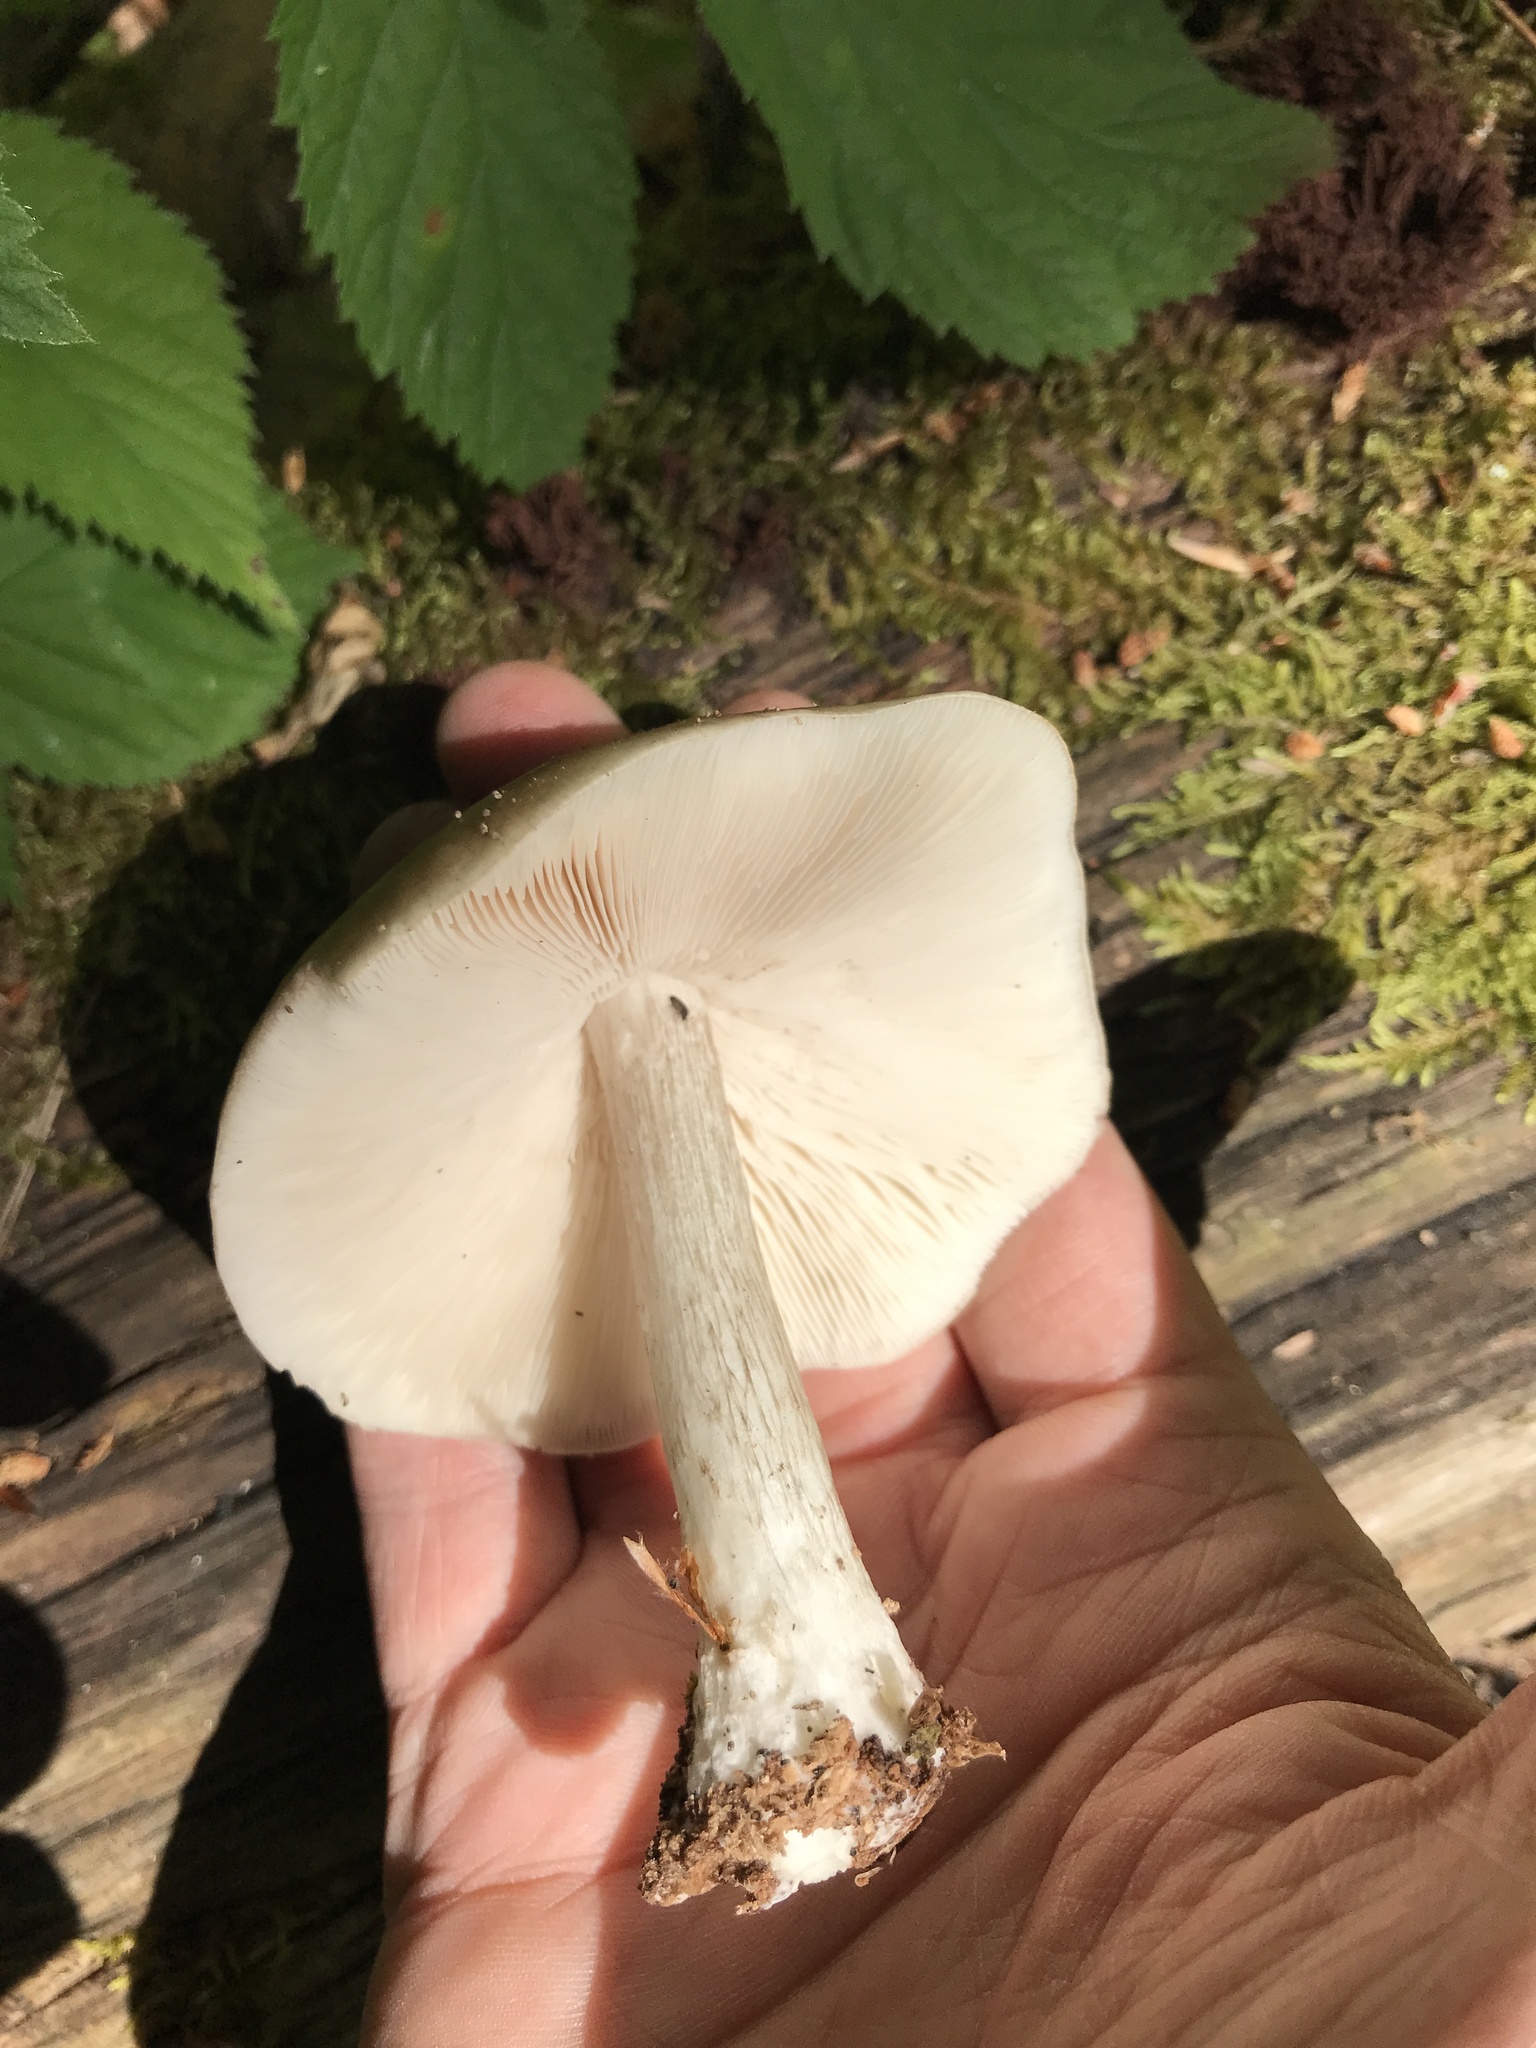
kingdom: Fungi
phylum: Basidiomycota
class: Agaricomycetes
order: Agaricales
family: Pluteaceae
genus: Pluteus
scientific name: Pluteus cervinus
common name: Deer shield
